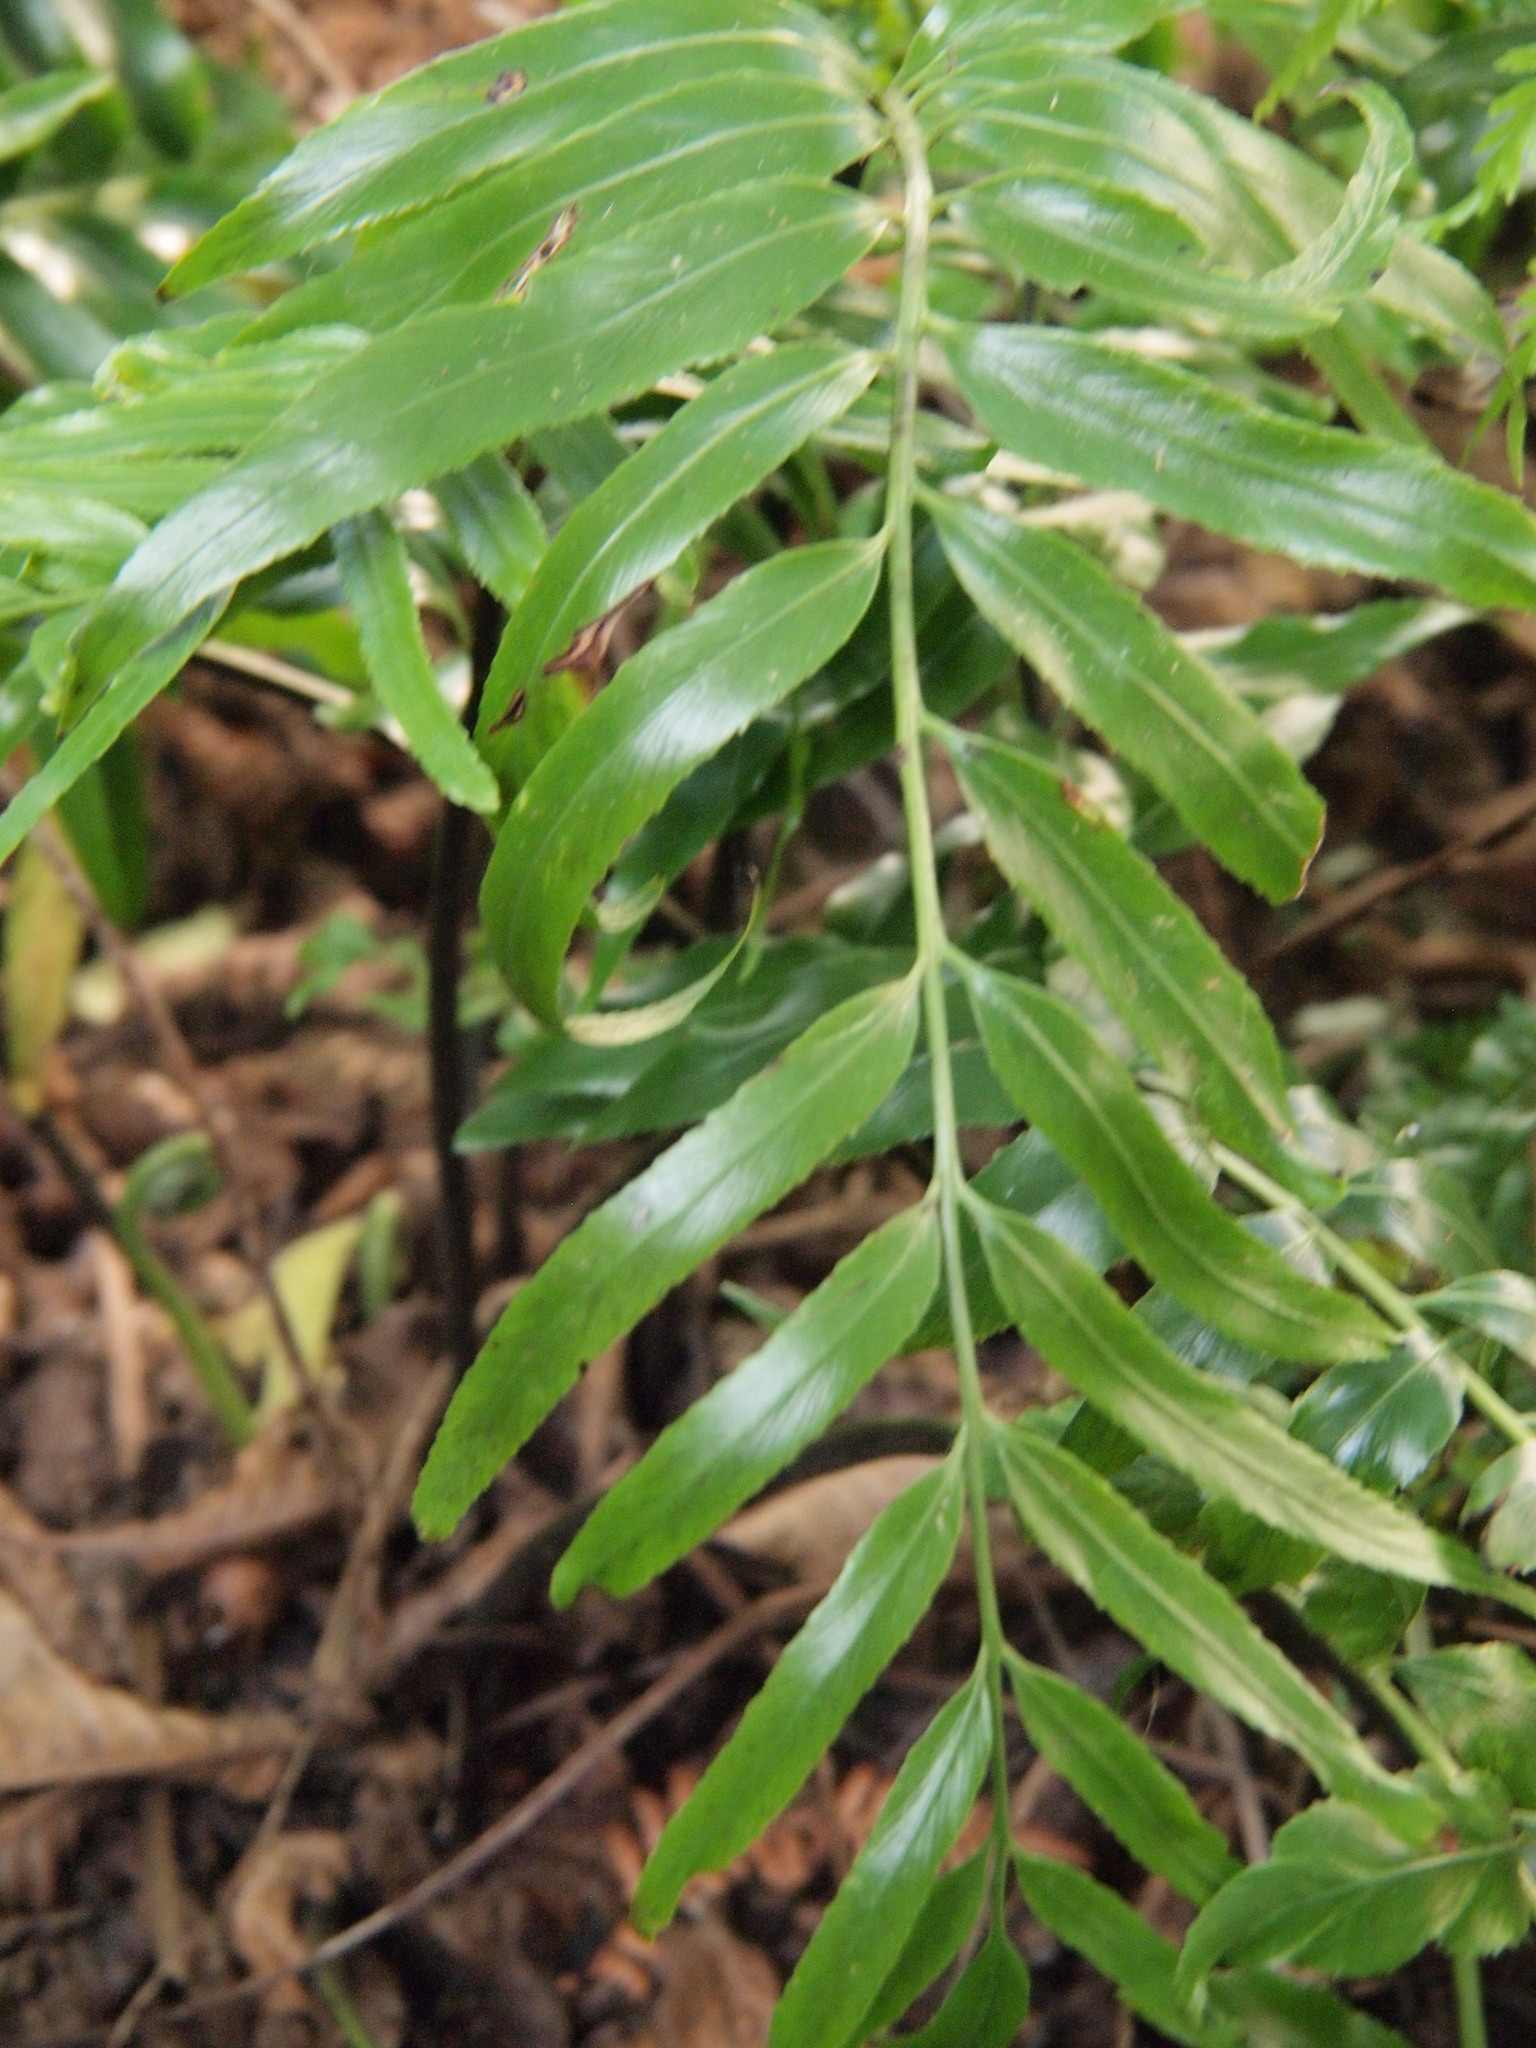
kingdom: Plantae
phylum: Tracheophyta
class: Polypodiopsida
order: Polypodiales
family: Aspleniaceae
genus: Asplenium
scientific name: Asplenium oblongifolium
